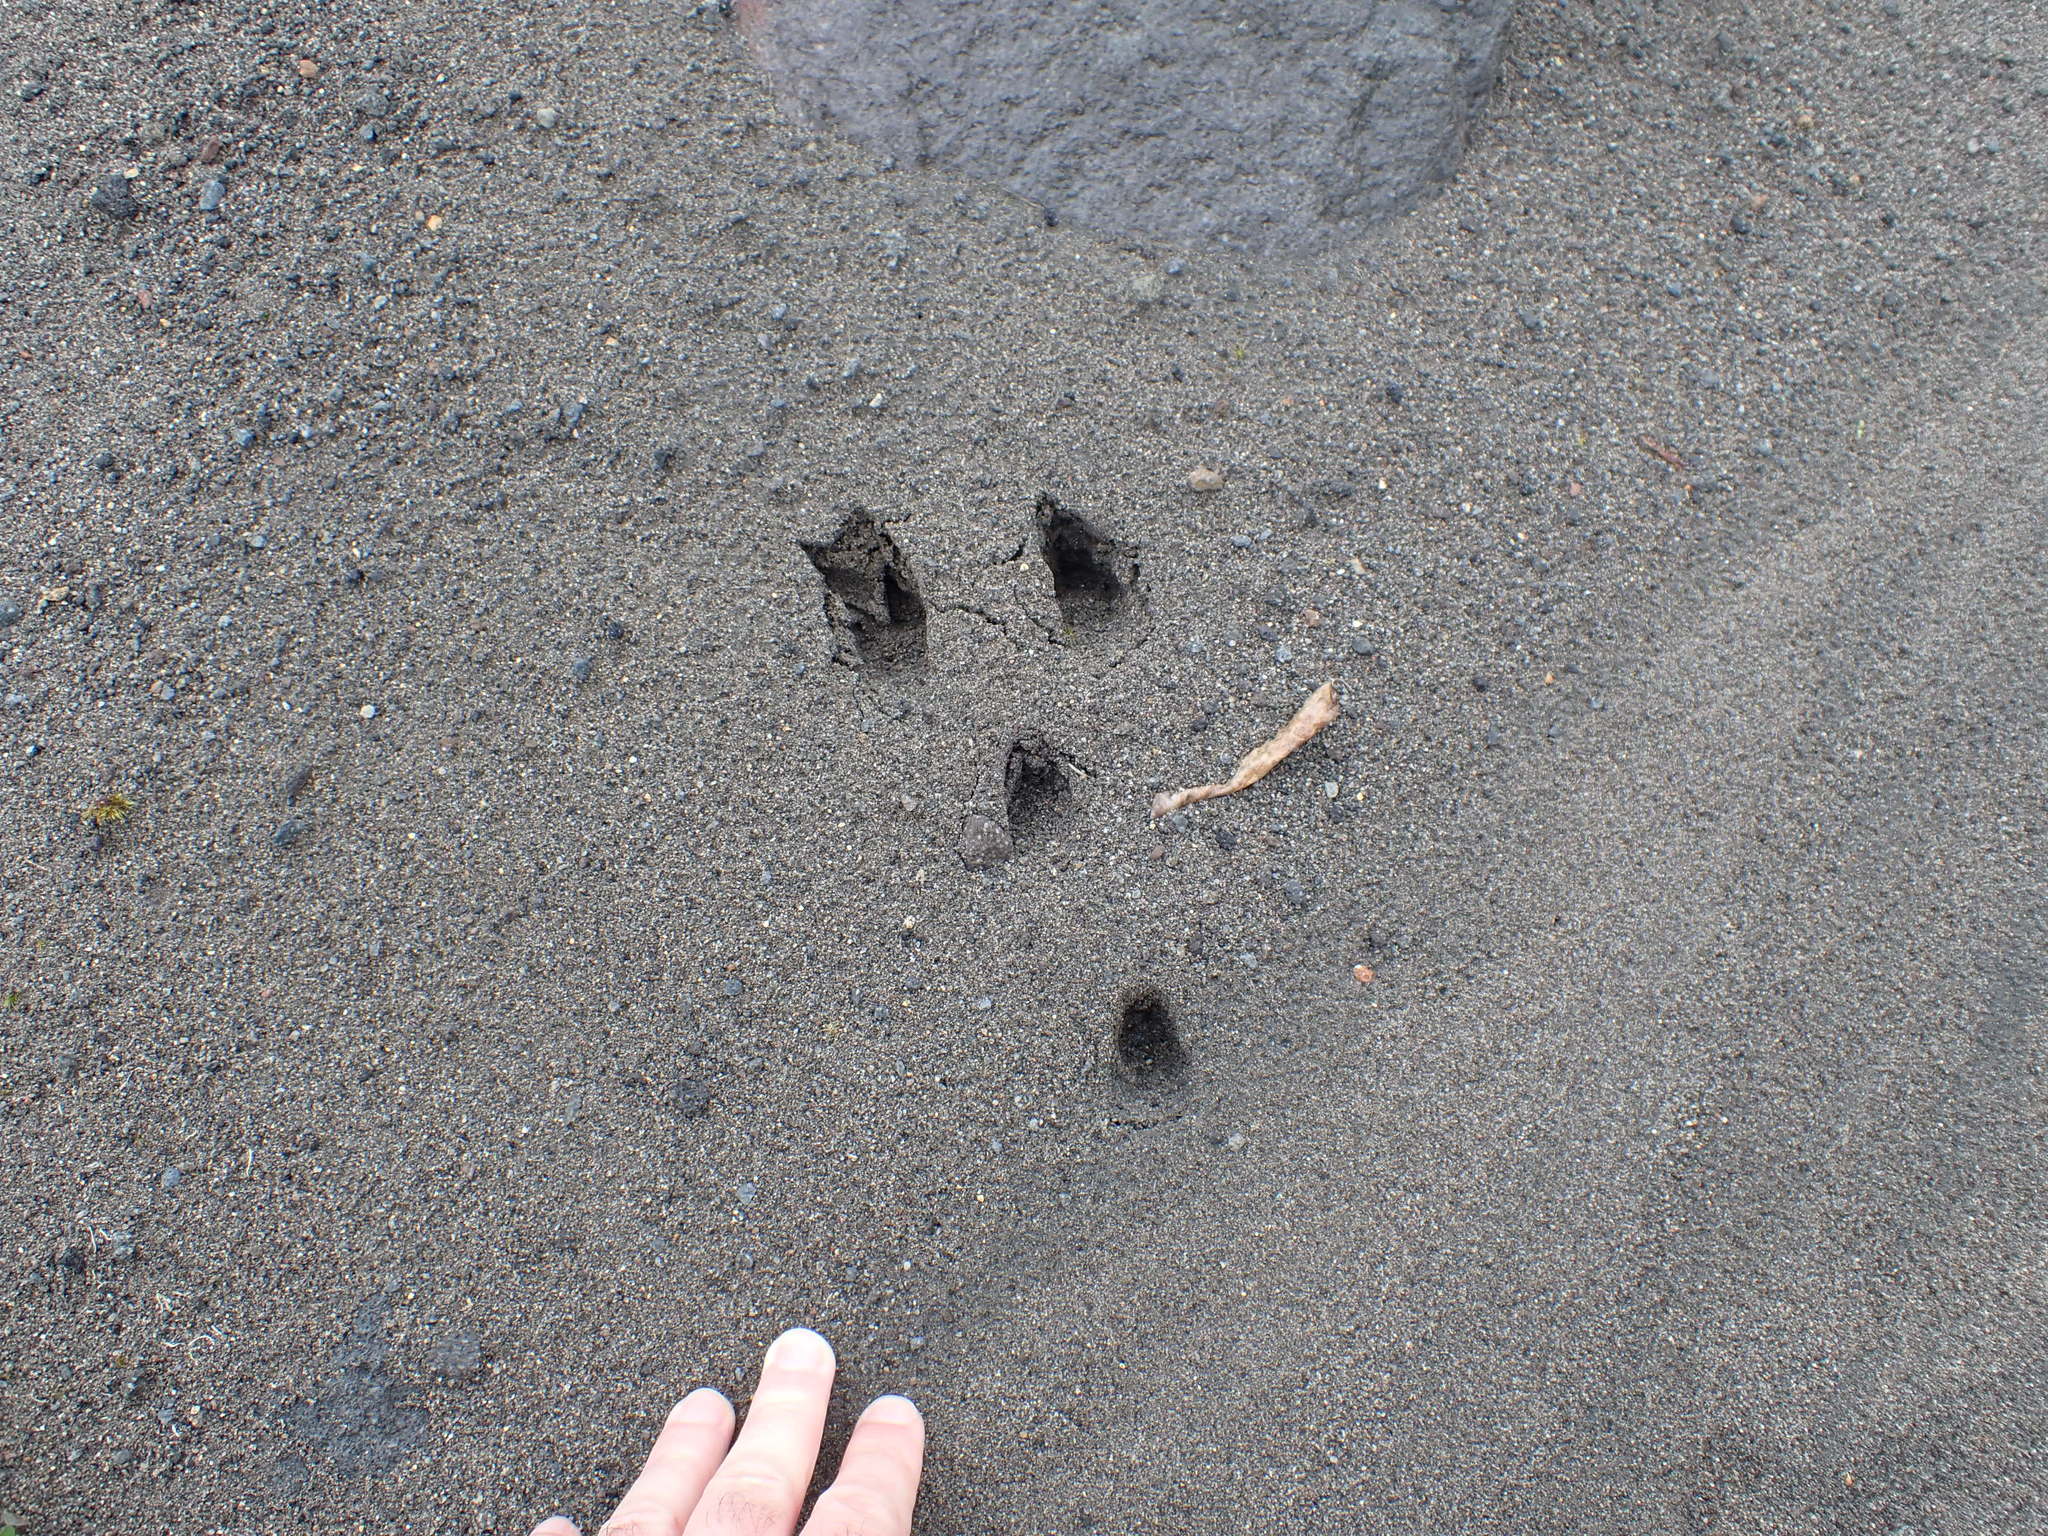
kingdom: Animalia
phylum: Chordata
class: Mammalia
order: Lagomorpha
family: Leporidae
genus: Oryctolagus
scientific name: Oryctolagus cuniculus
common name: European rabbit
